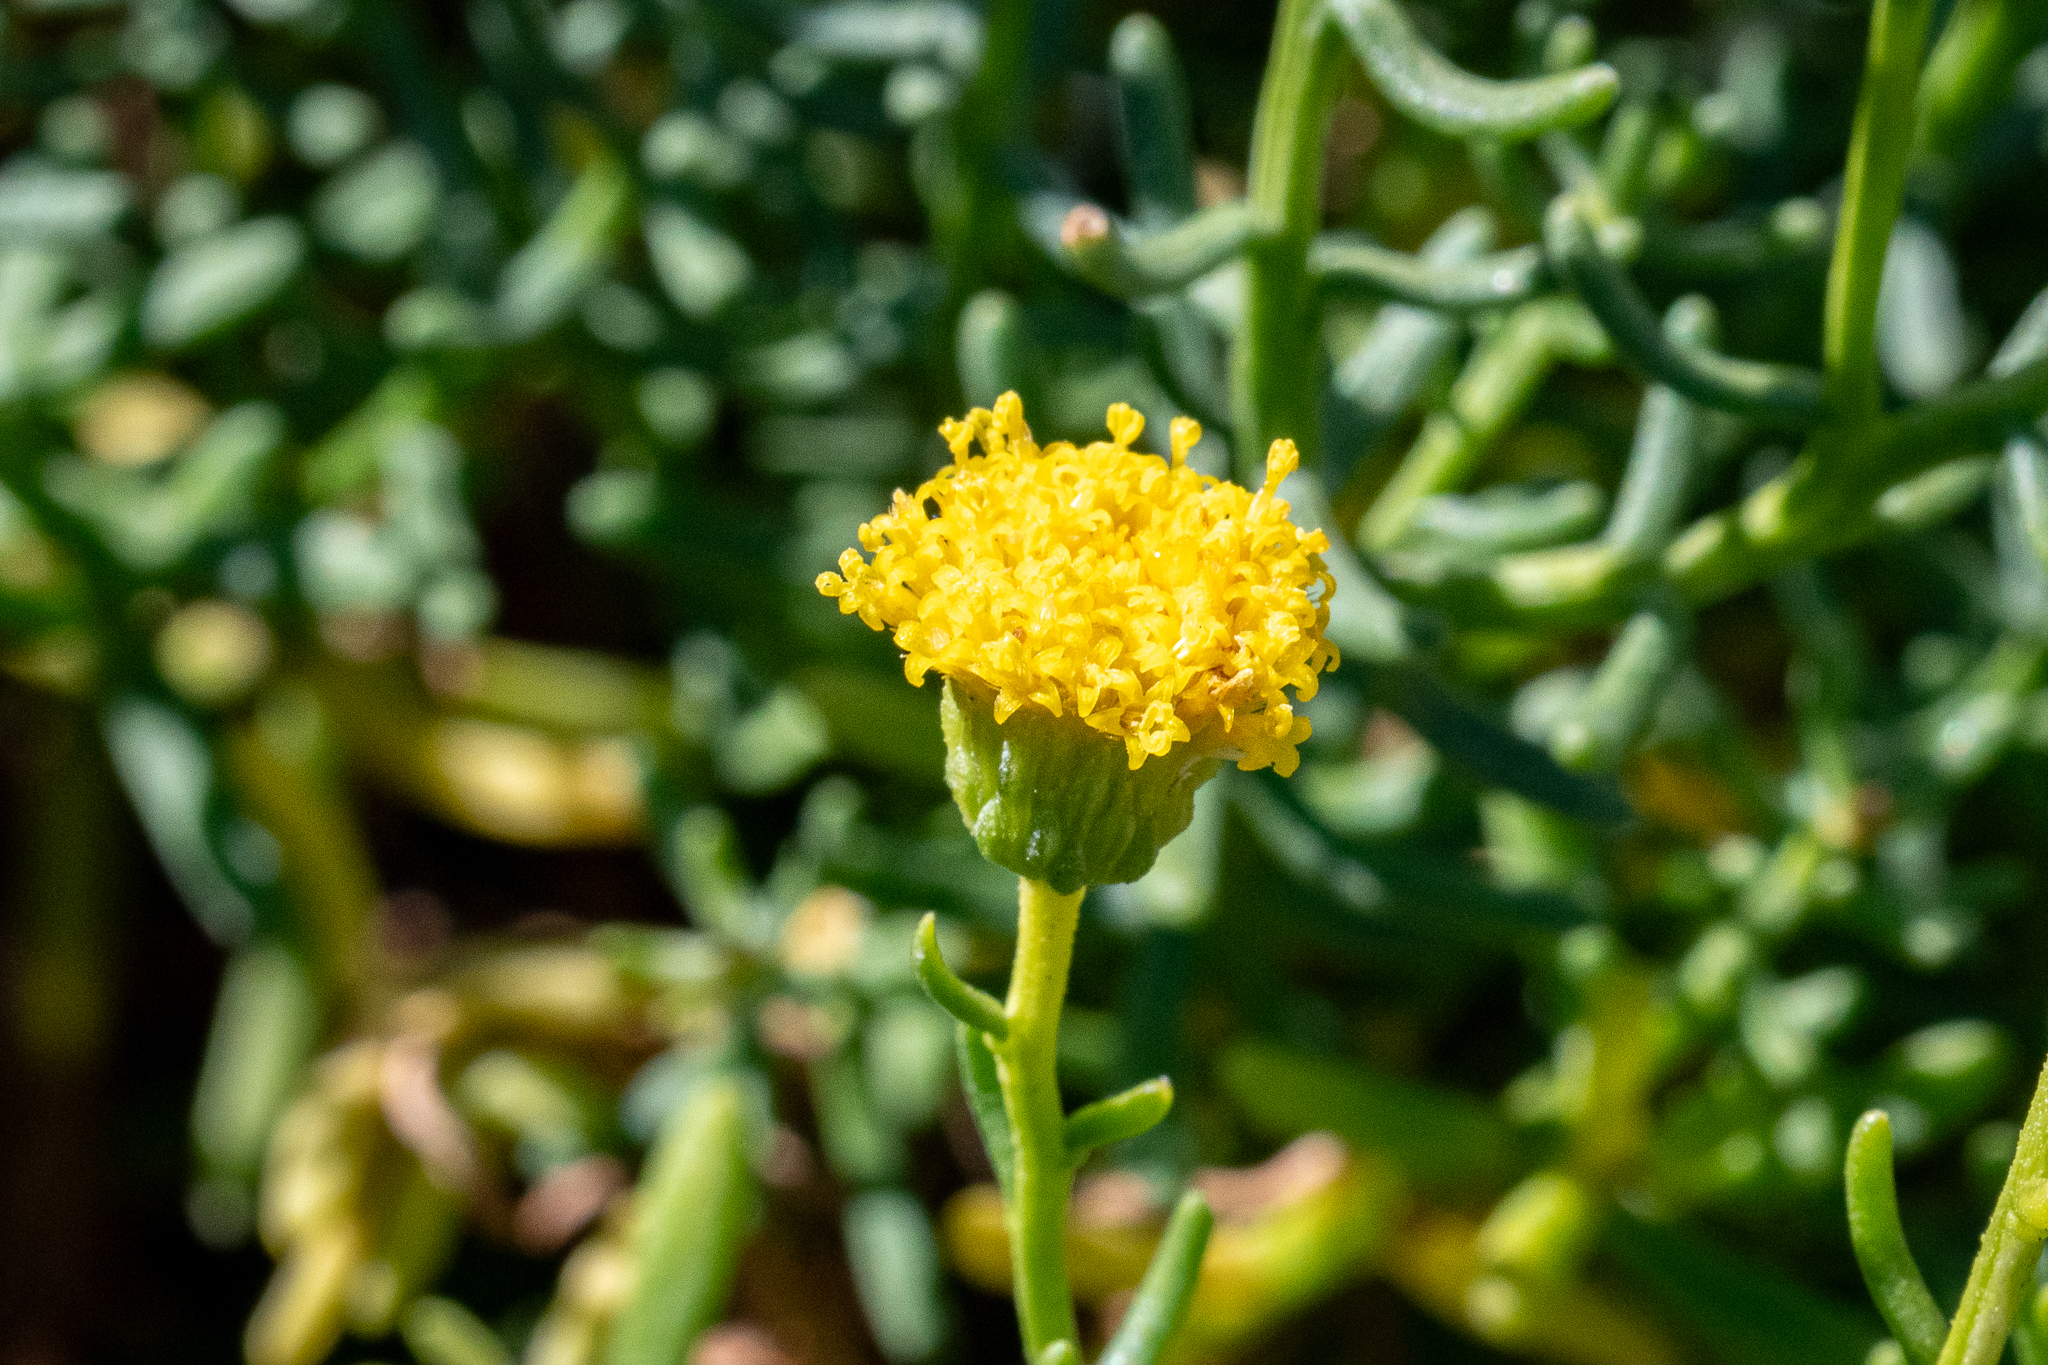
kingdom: Plantae
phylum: Tracheophyta
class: Magnoliopsida
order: Asterales
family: Asteraceae
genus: Chrysocoma
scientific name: Chrysocoma cernua
